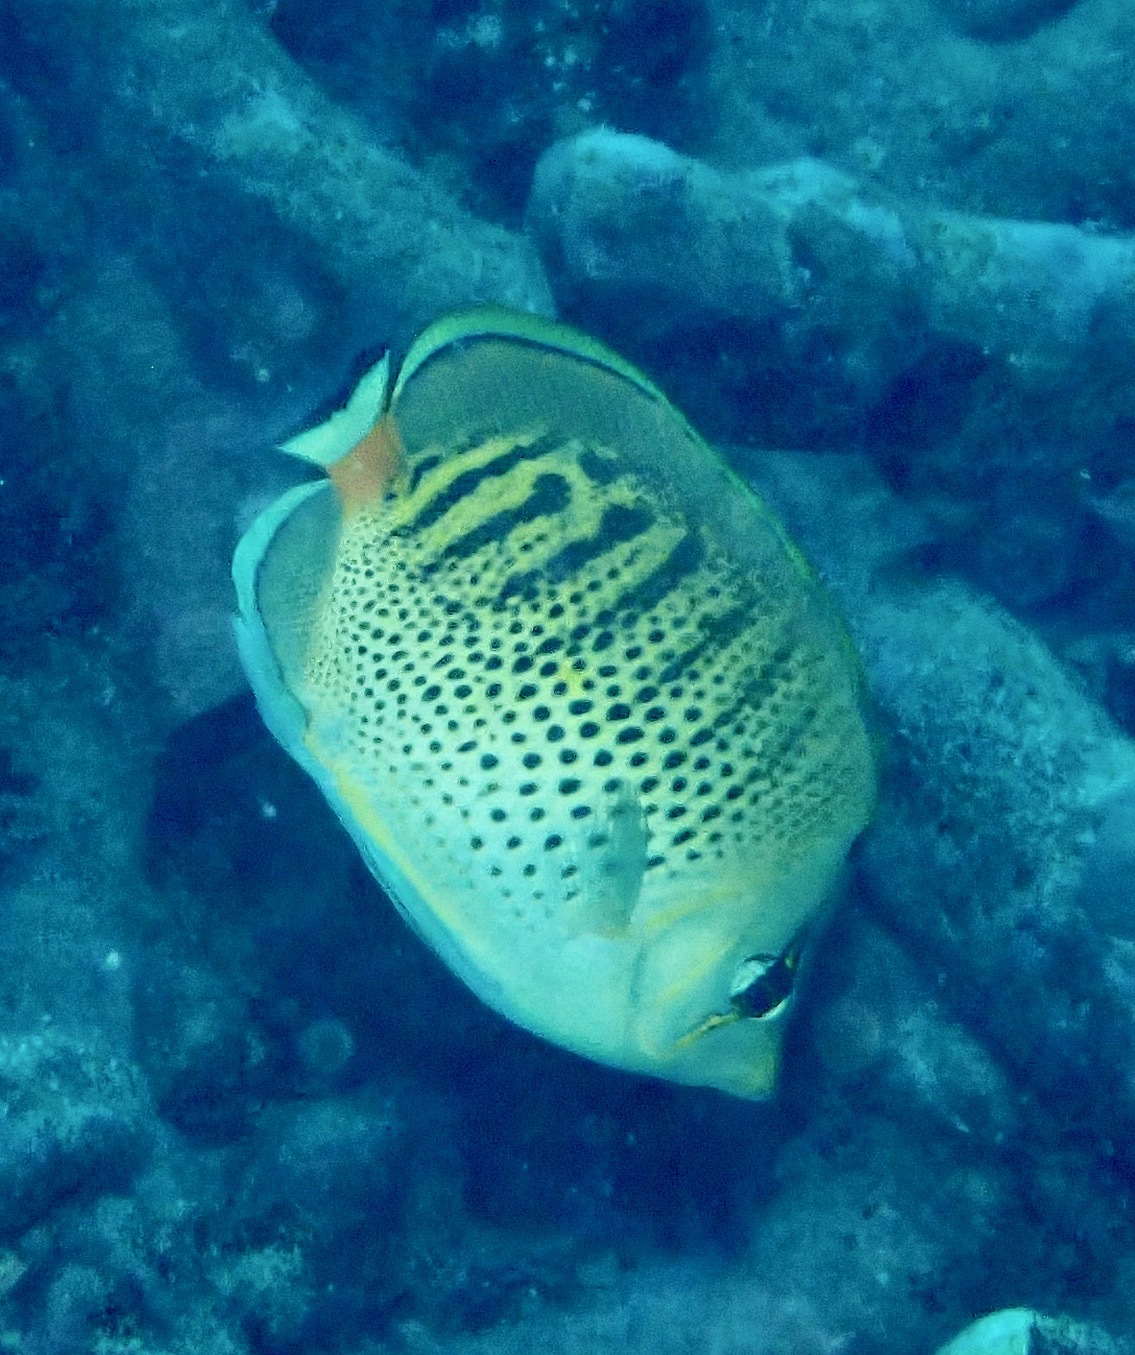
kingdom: Animalia
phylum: Chordata
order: Perciformes
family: Chaetodontidae
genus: Chaetodon
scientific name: Chaetodon punctatofasciatus
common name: Spot-banded butterflyfish
